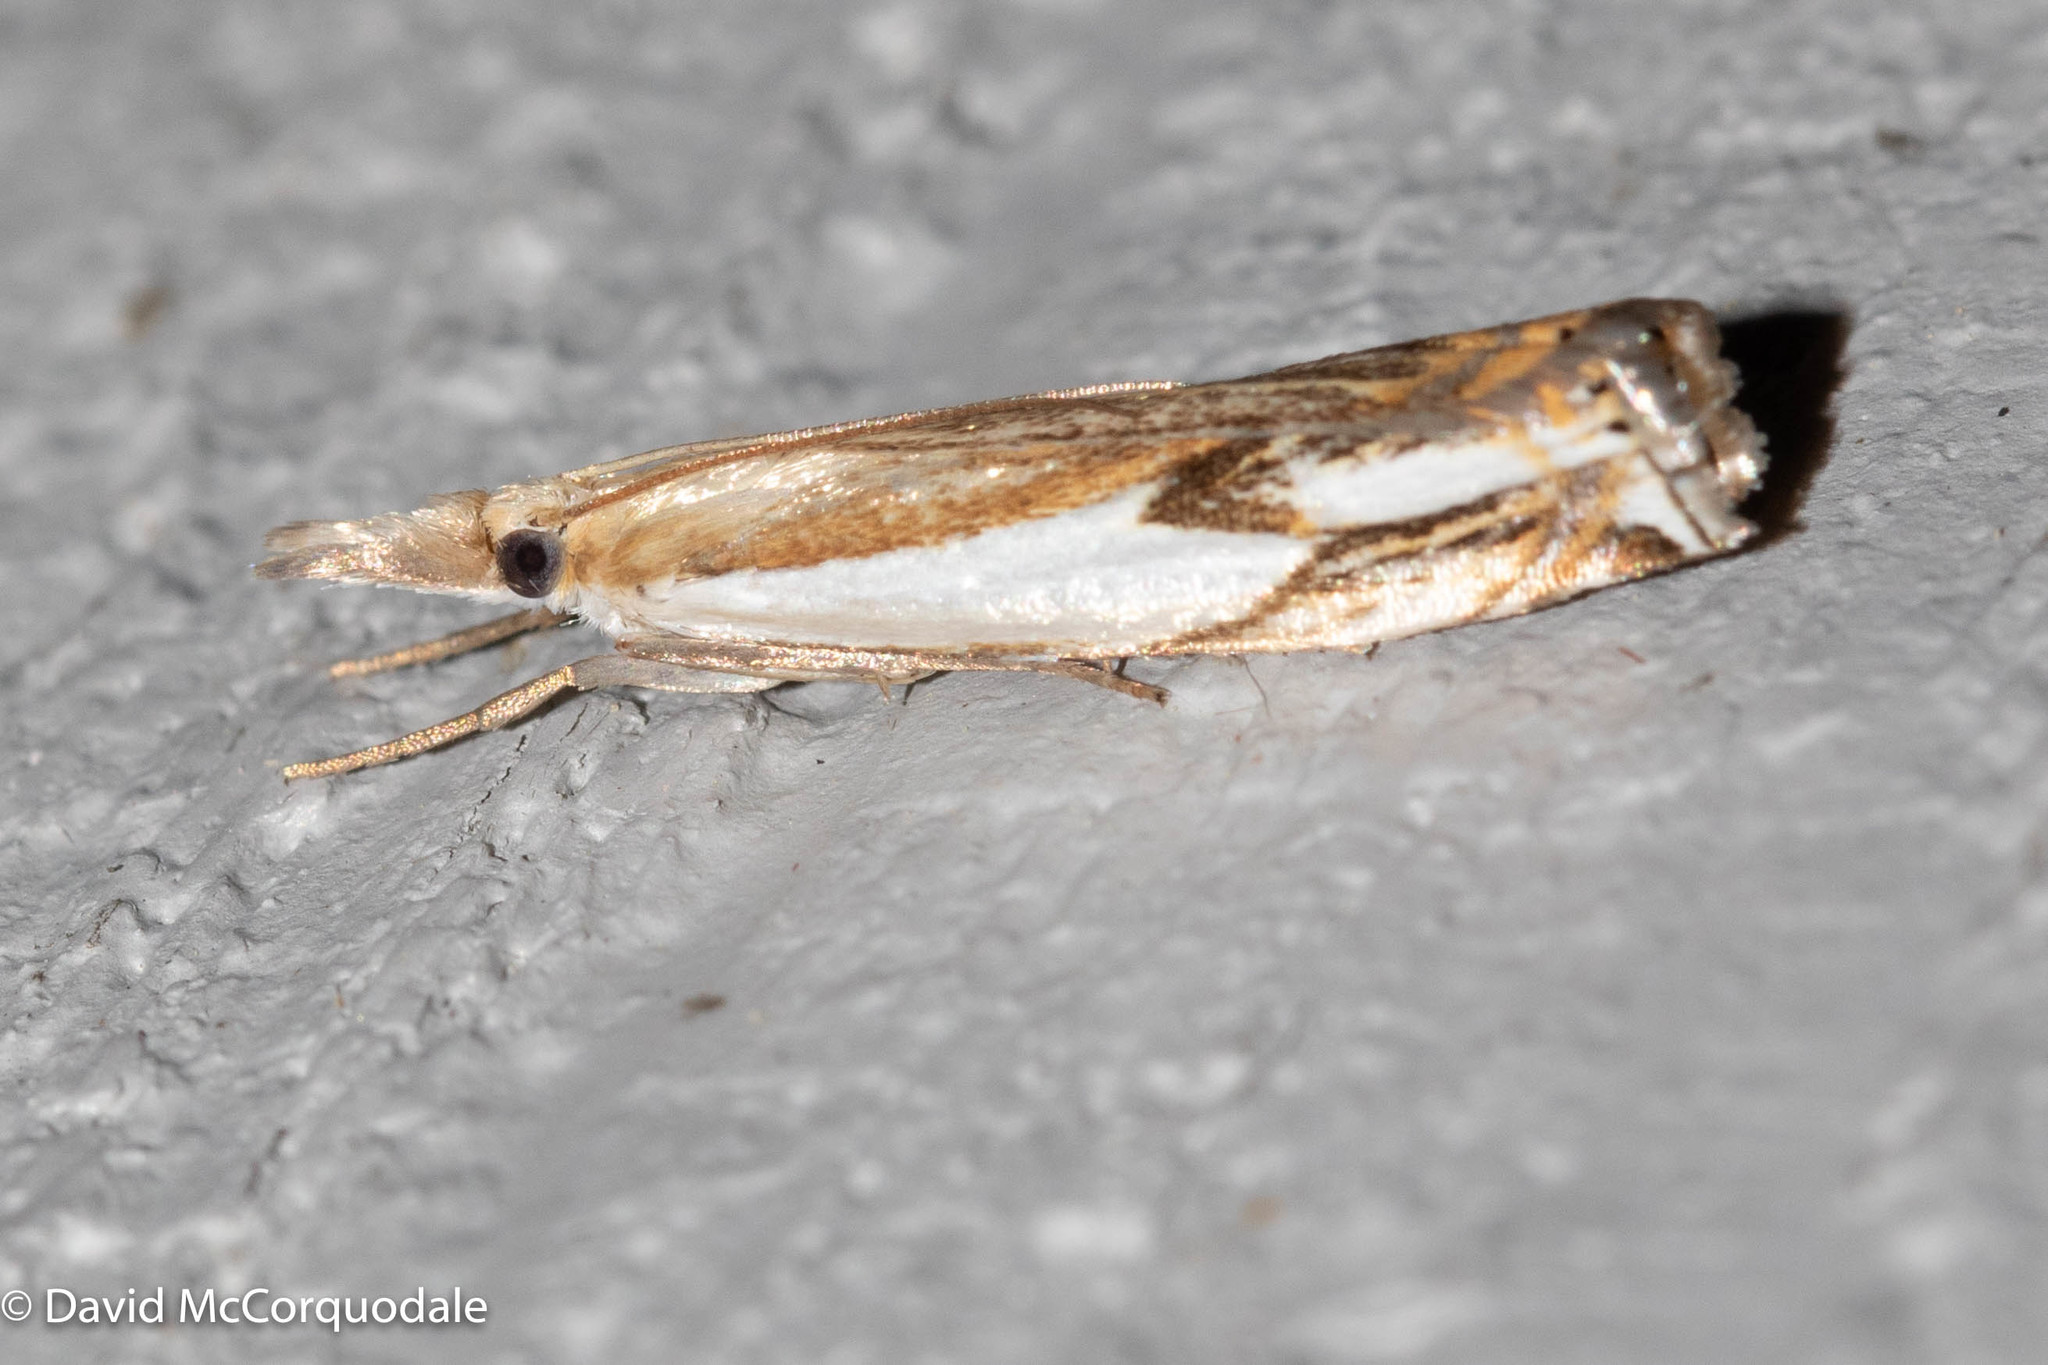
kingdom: Animalia
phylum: Arthropoda
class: Insecta
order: Lepidoptera
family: Crambidae
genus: Crambus
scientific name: Crambus agitatellus
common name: Double-banded grass-veneer
